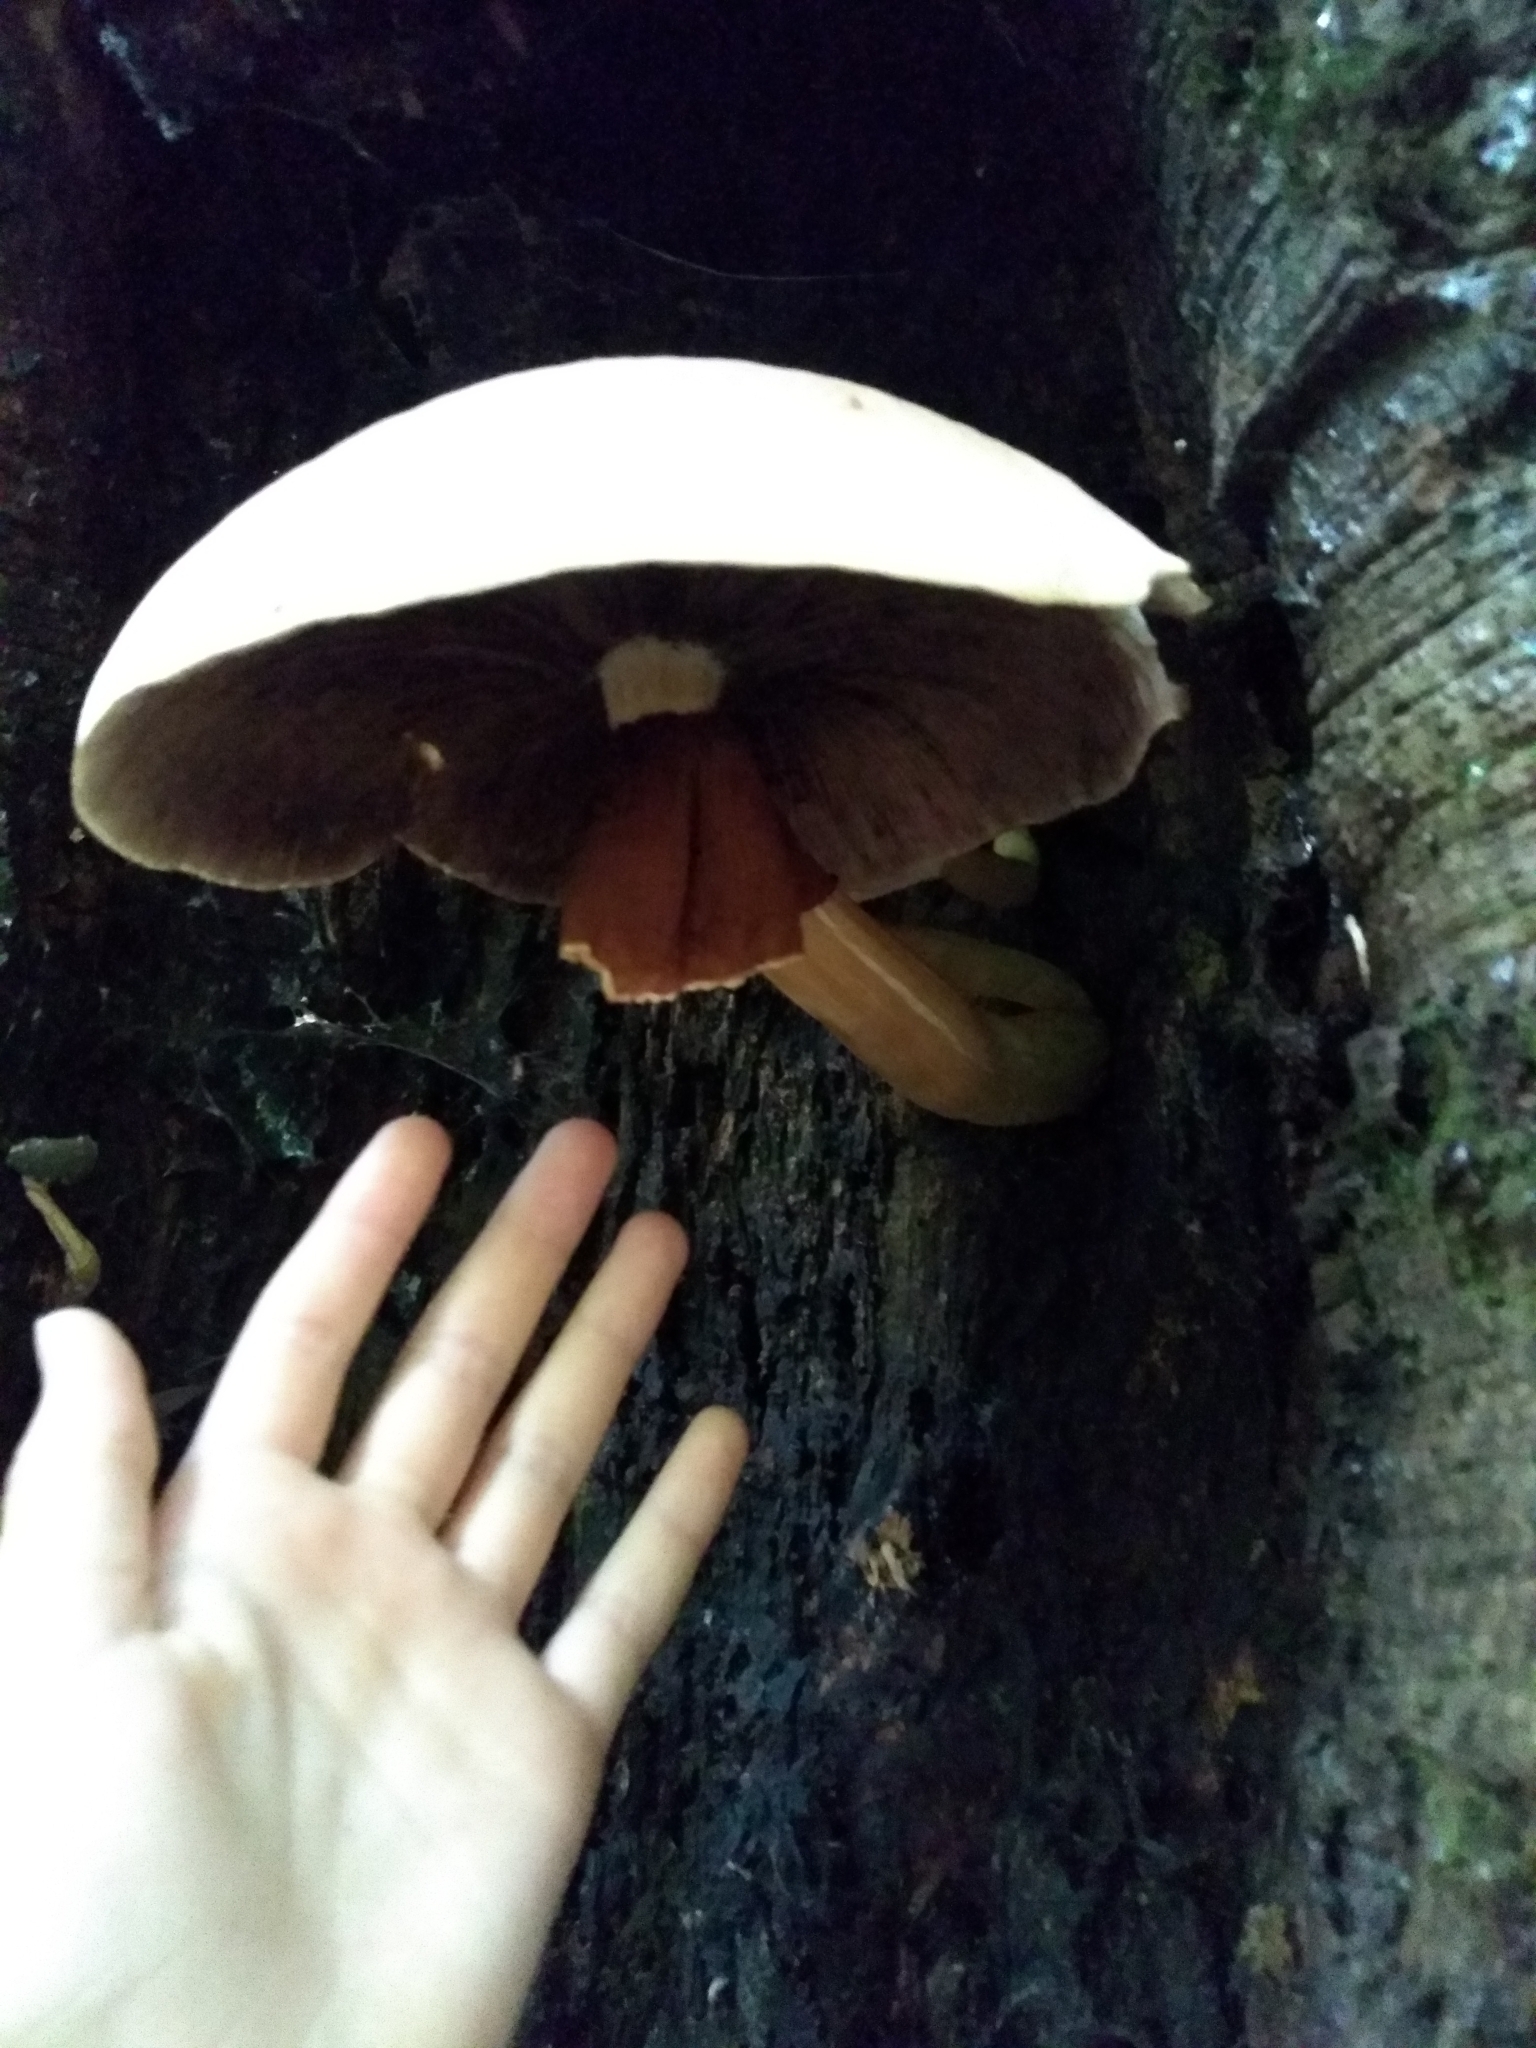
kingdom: Fungi
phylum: Basidiomycota
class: Agaricomycetes
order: Agaricales
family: Tubariaceae
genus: Cyclocybe
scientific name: Cyclocybe parasitica
